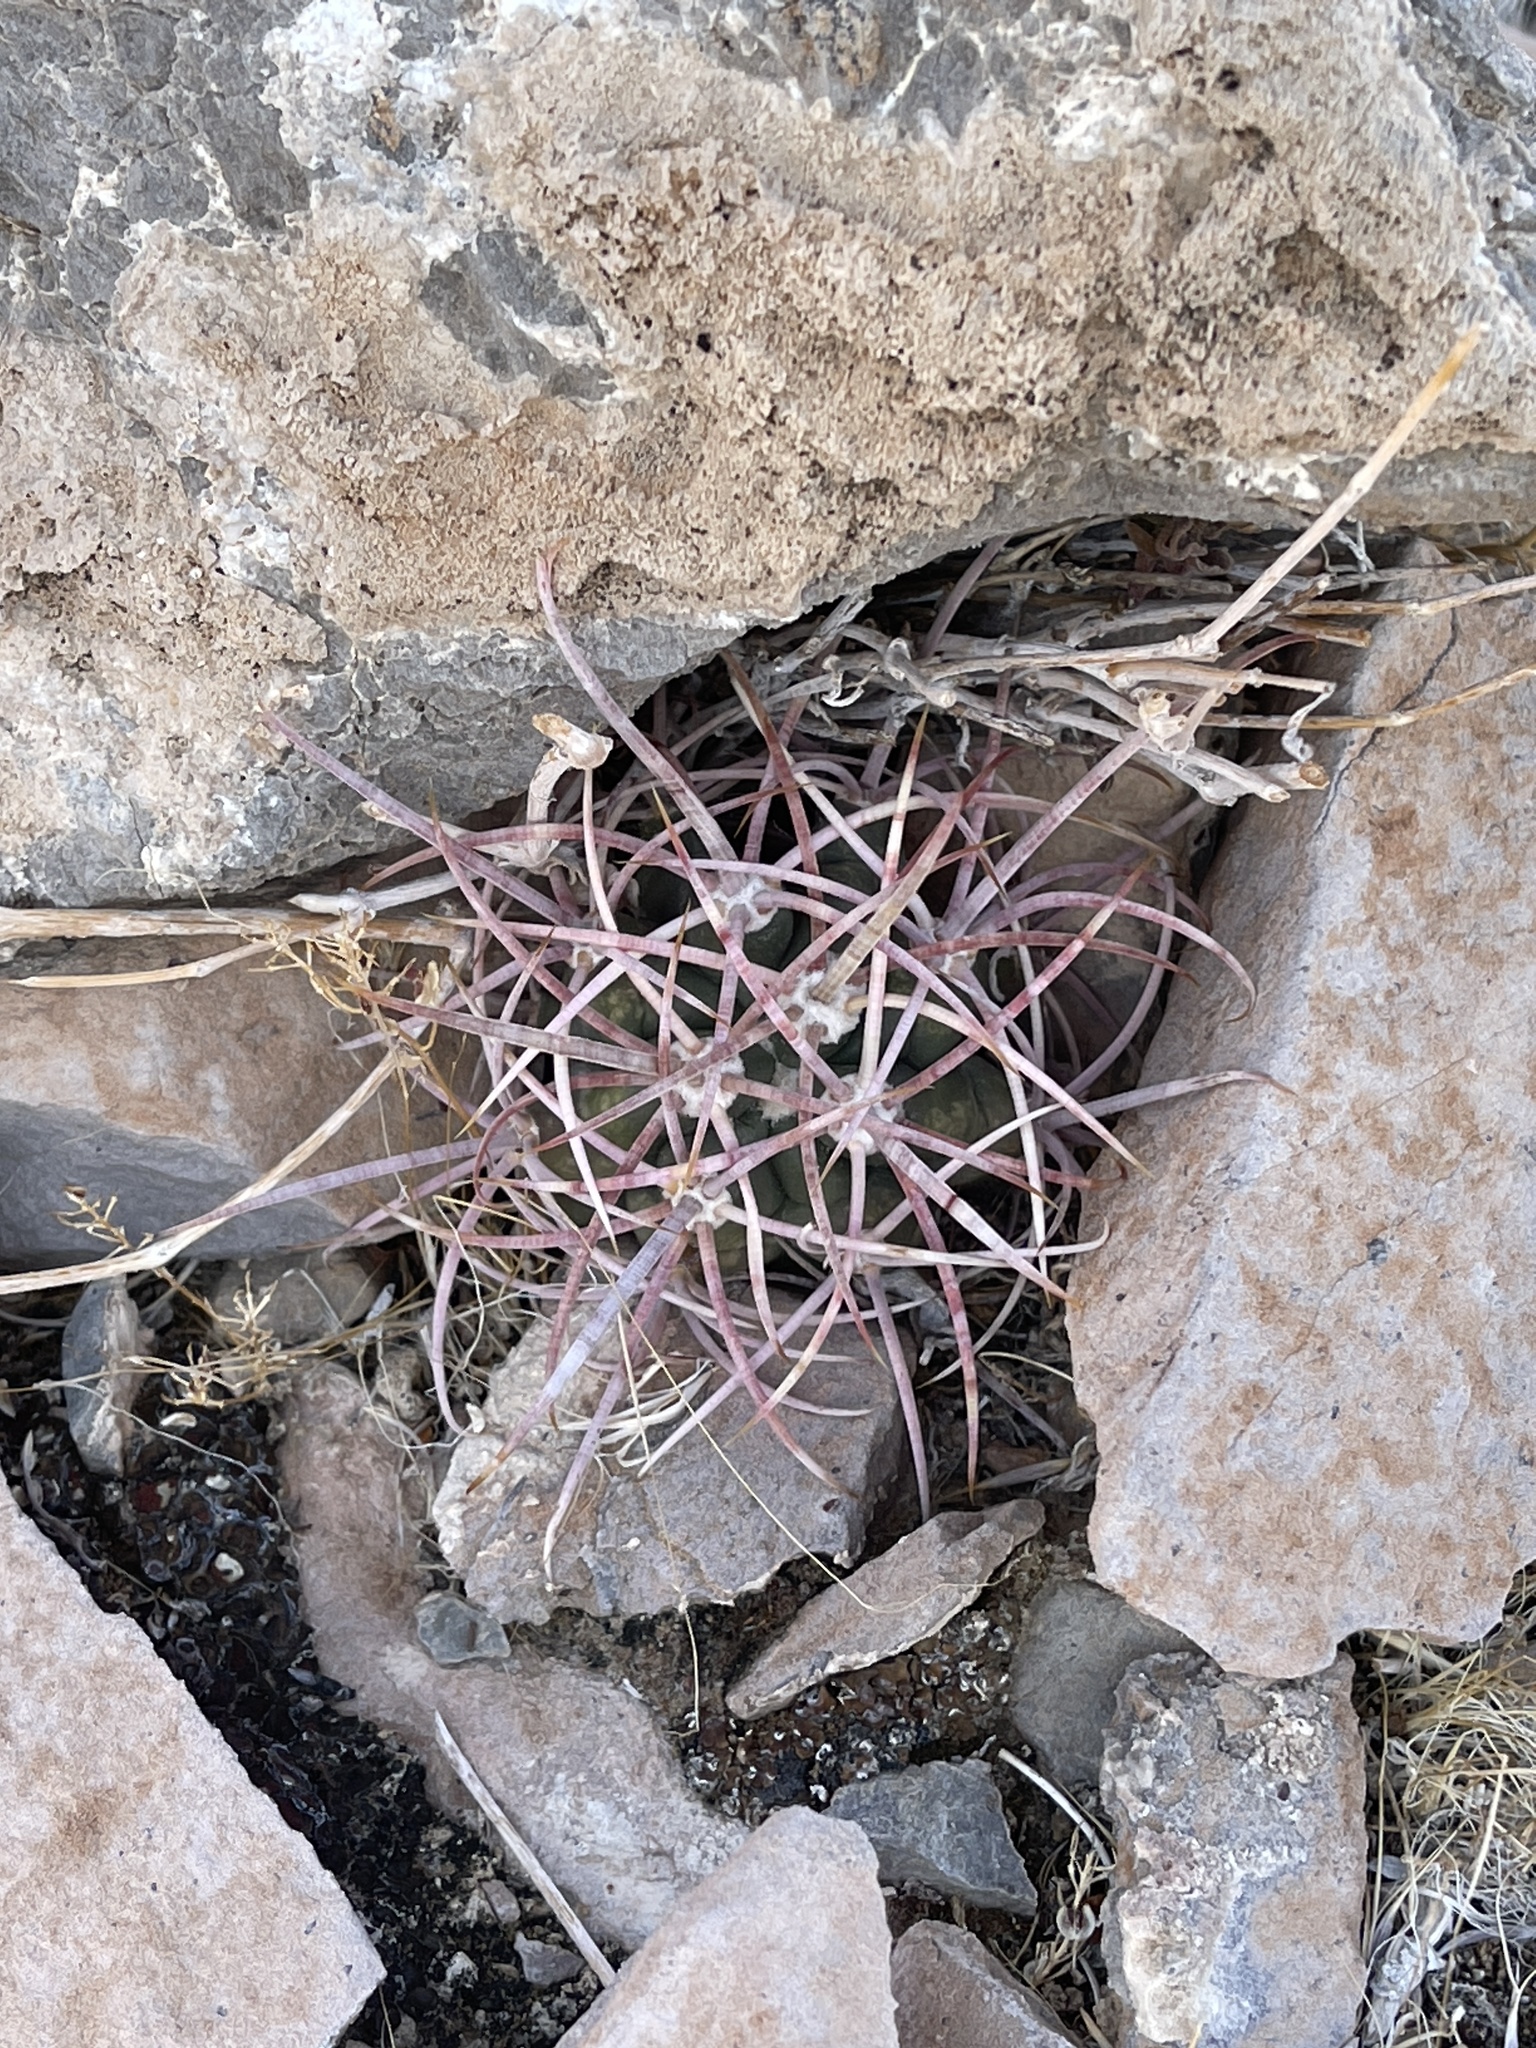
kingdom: Plantae
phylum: Tracheophyta
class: Magnoliopsida
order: Caryophyllales
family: Cactaceae
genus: Echinocactus
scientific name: Echinocactus polycephalus
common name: Cottontop cactus
